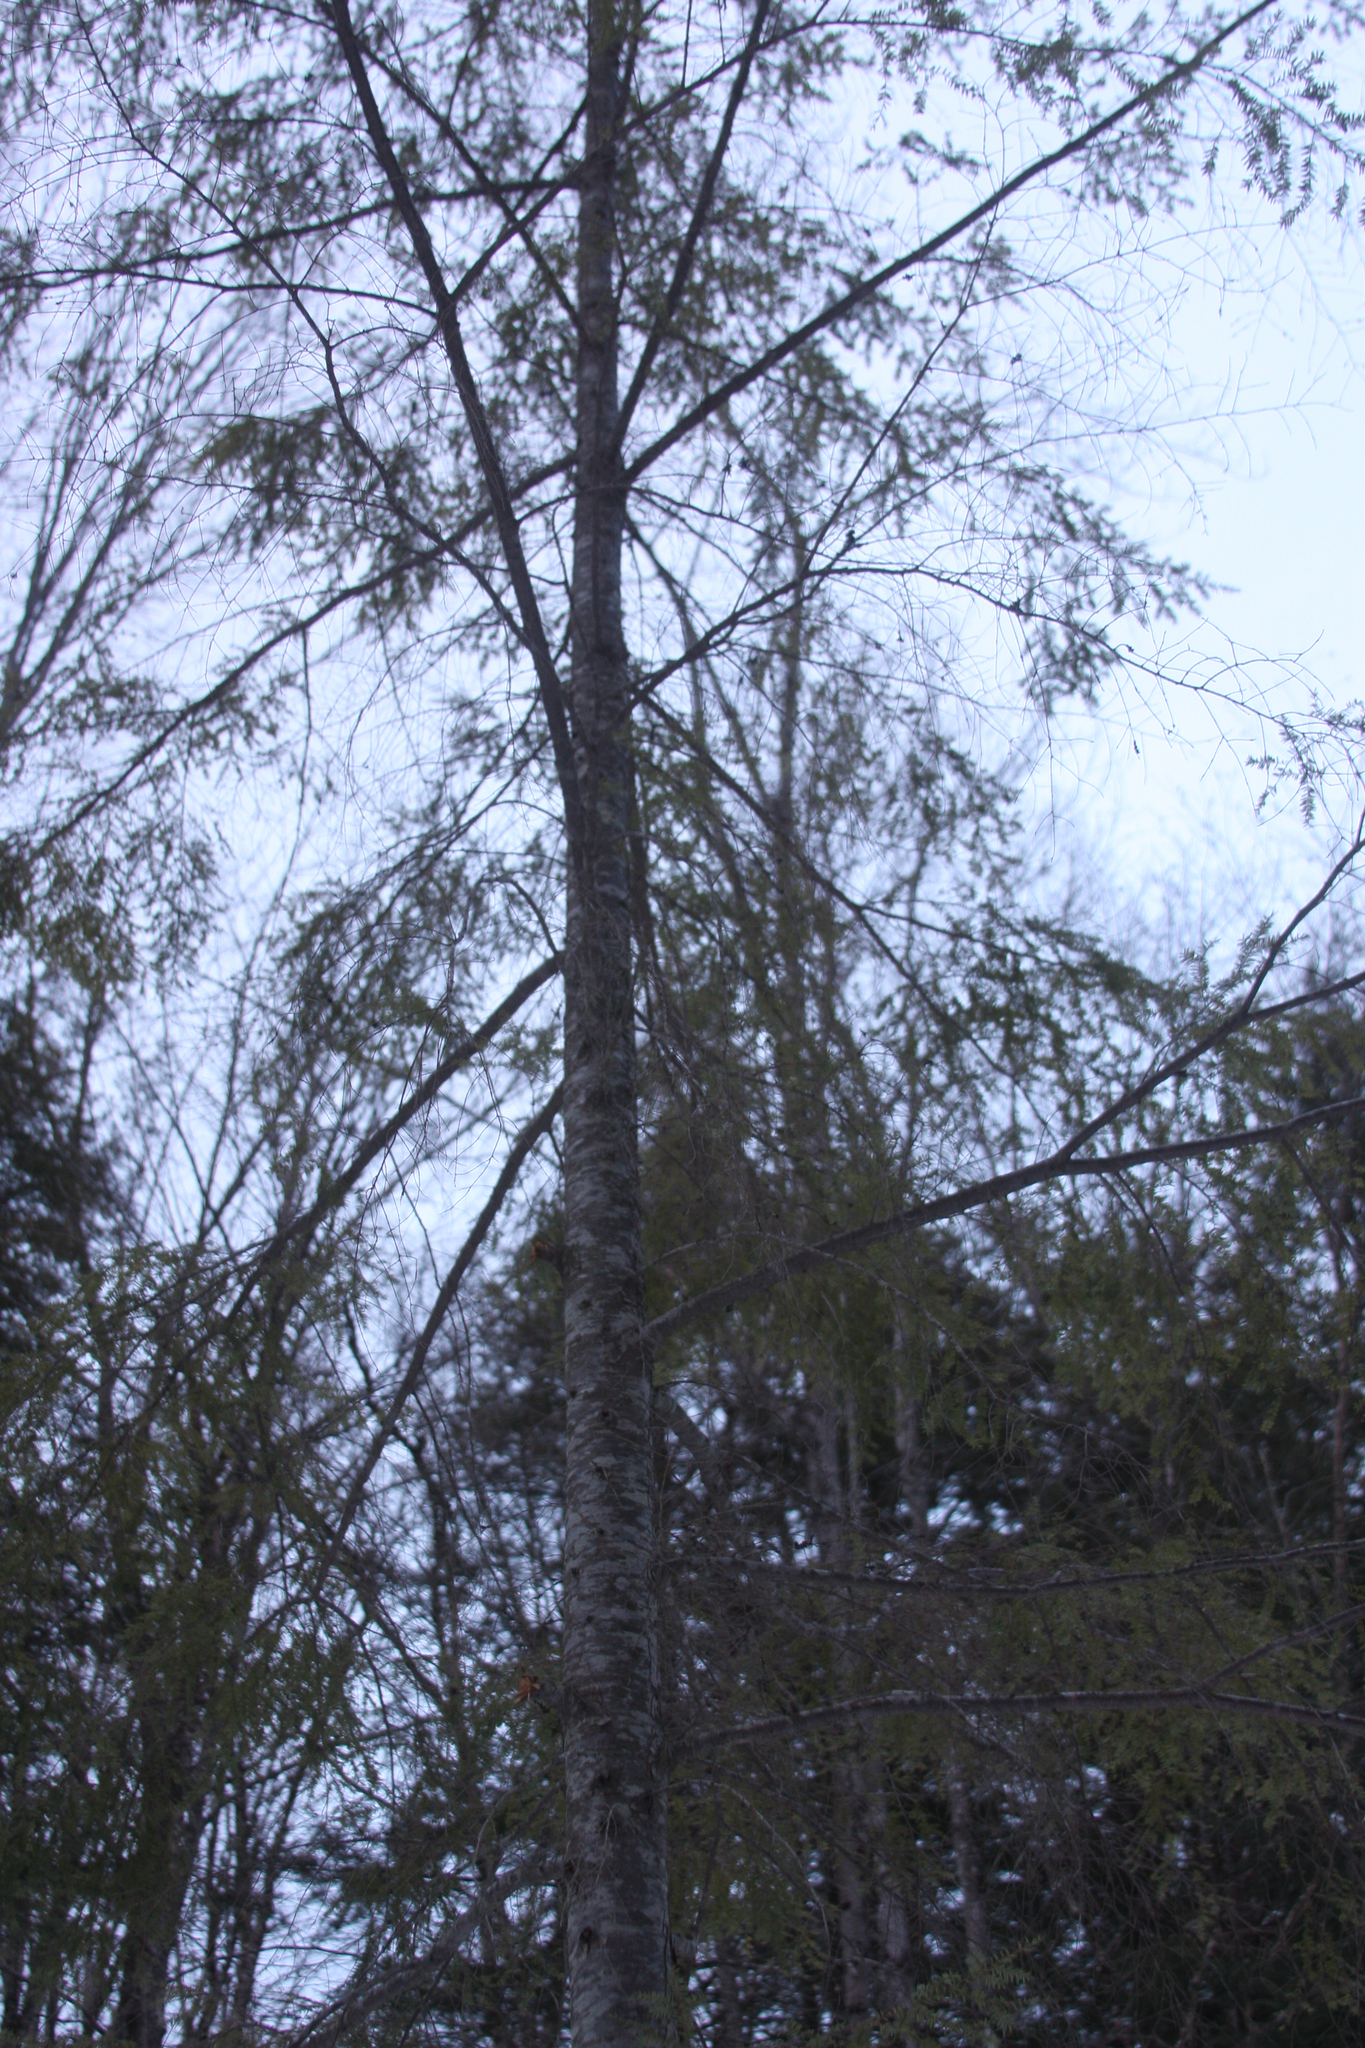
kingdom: Plantae
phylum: Tracheophyta
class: Pinopsida
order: Pinales
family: Pinaceae
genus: Tsuga
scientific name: Tsuga canadensis
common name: Eastern hemlock
